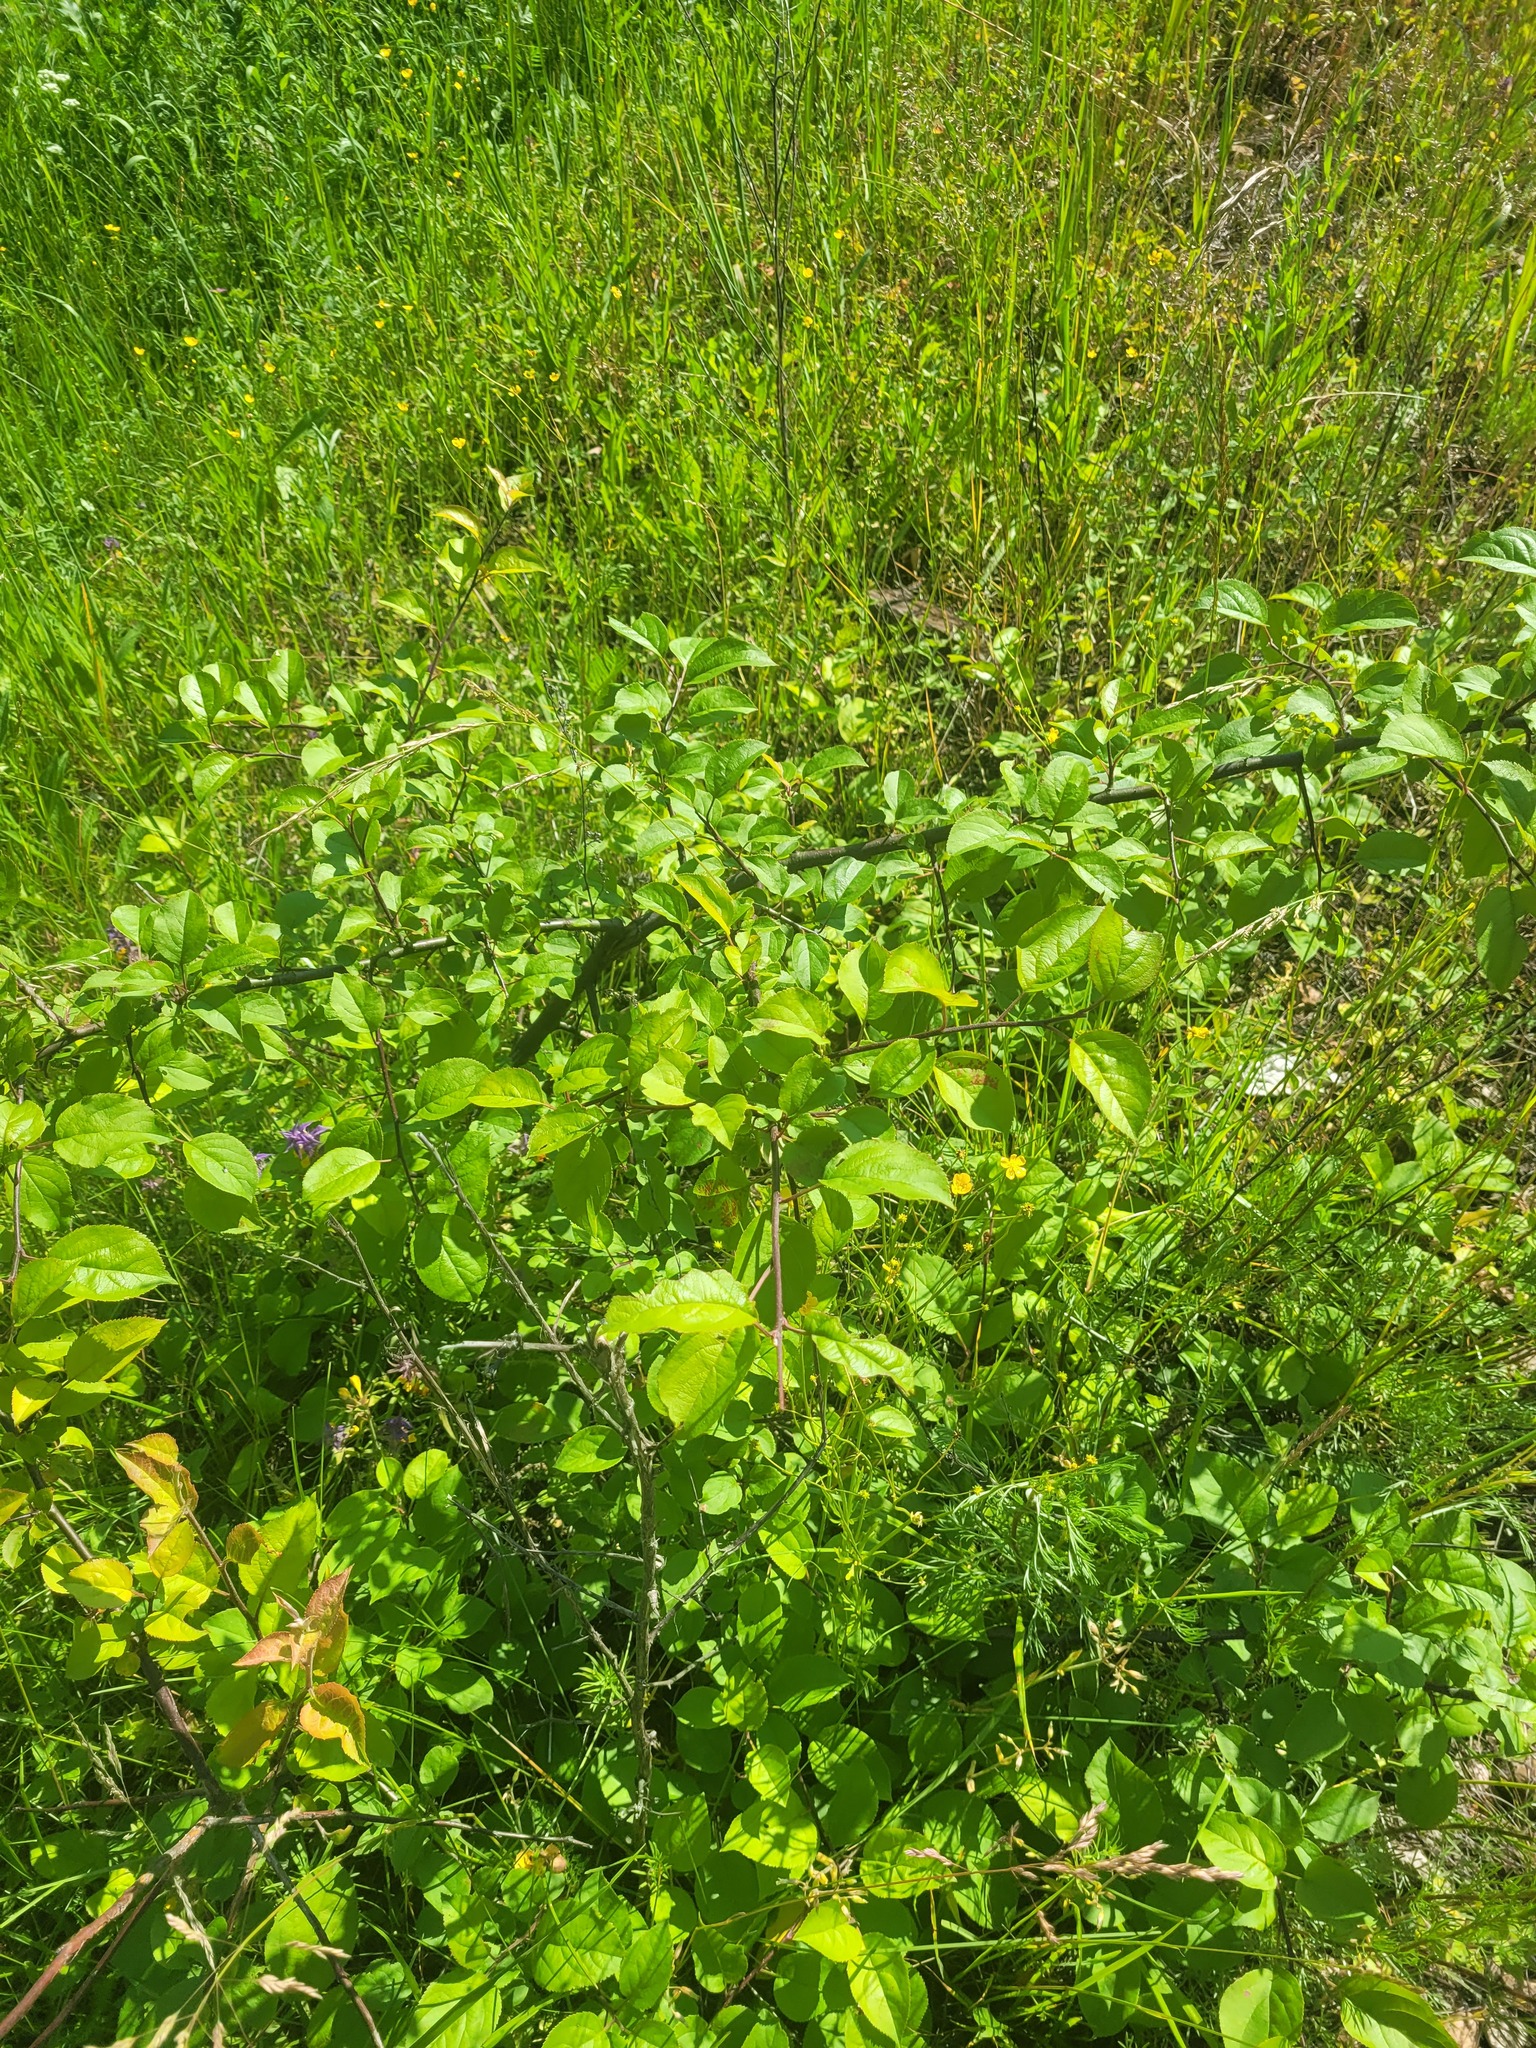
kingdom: Plantae
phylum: Tracheophyta
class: Magnoliopsida
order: Rosales
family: Rosaceae
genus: Malus
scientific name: Malus domestica
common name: Apple
